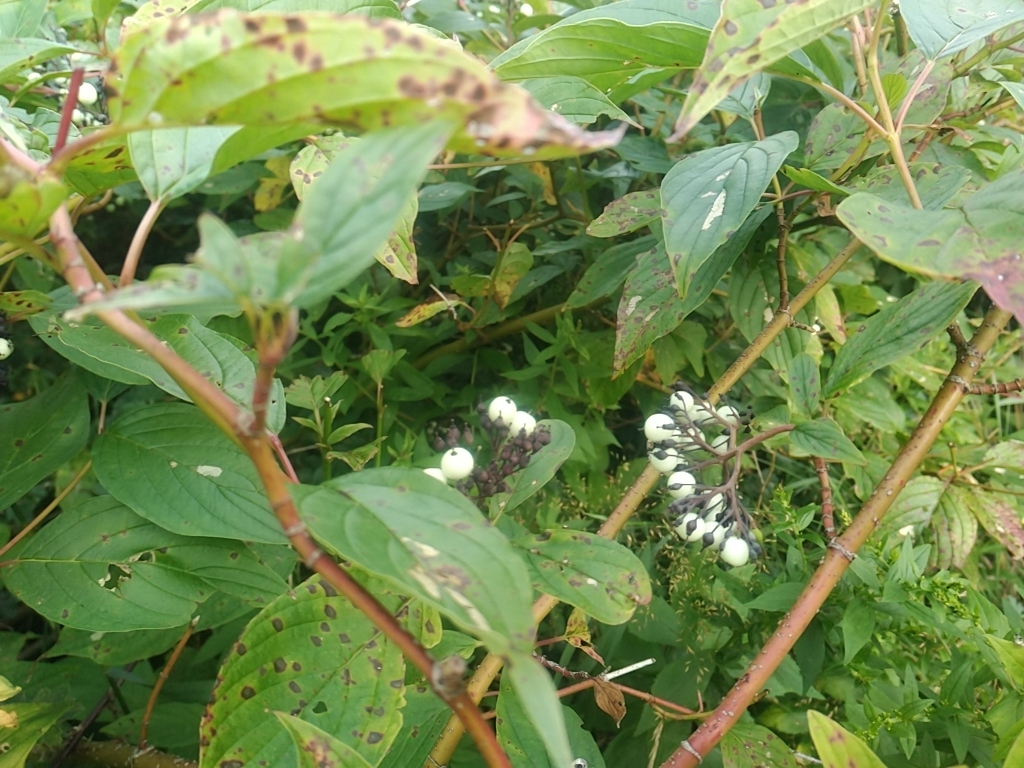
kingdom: Plantae
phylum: Tracheophyta
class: Magnoliopsida
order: Cornales
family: Cornaceae
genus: Cornus
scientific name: Cornus sericea
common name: Red-osier dogwood
